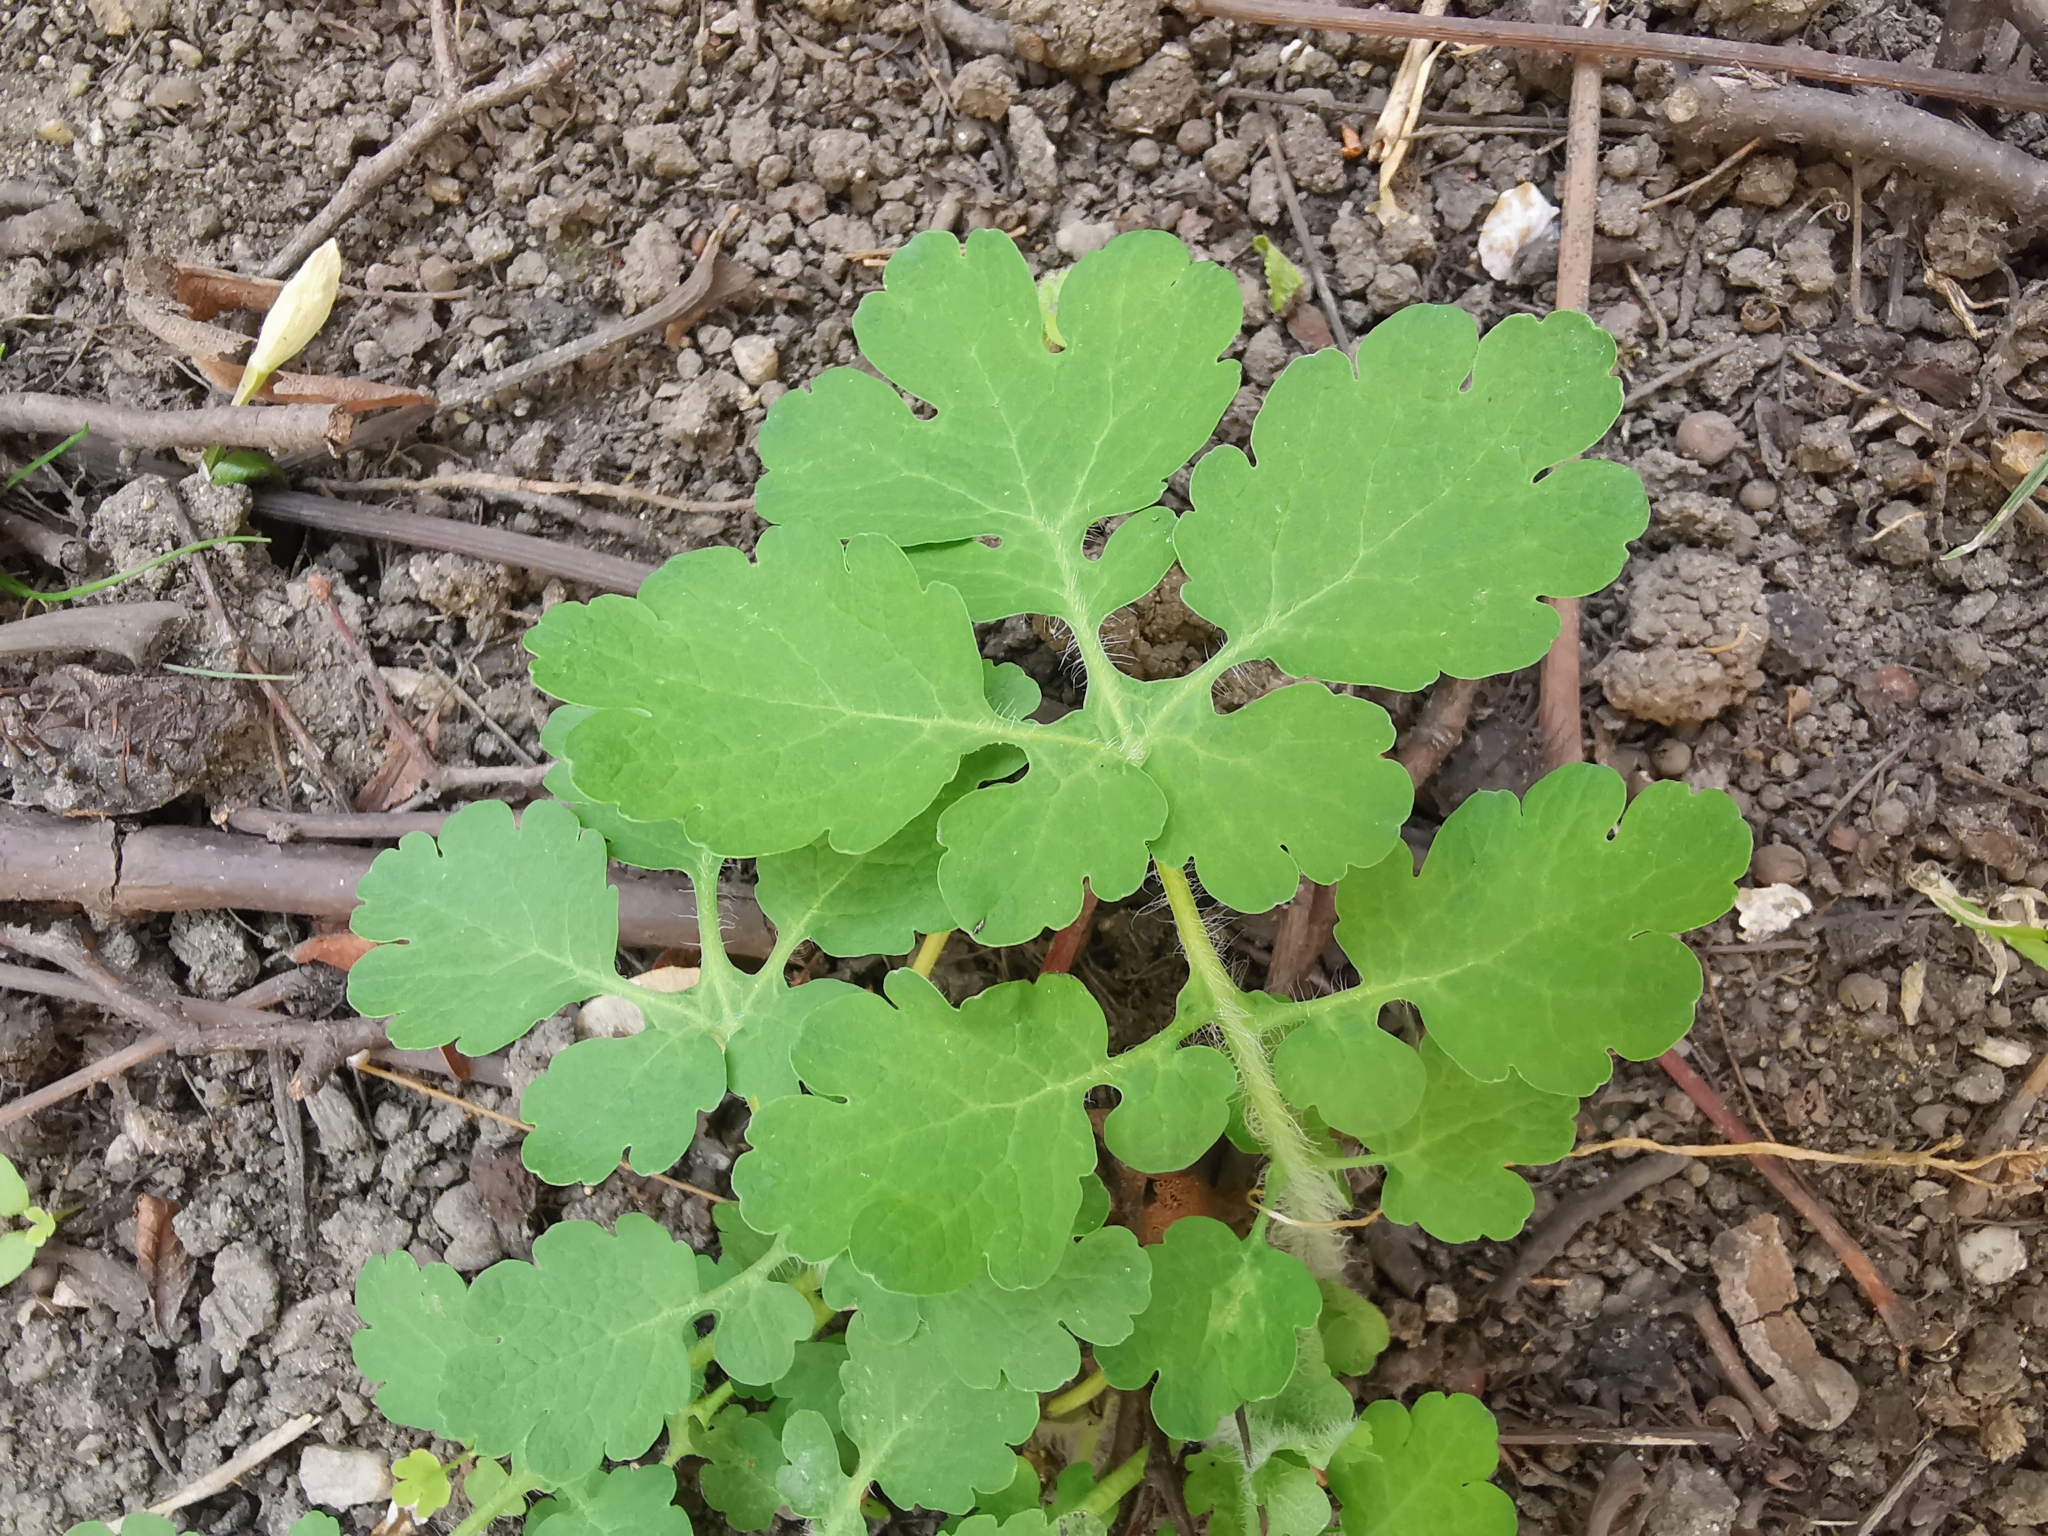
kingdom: Plantae
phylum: Tracheophyta
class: Magnoliopsida
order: Ranunculales
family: Papaveraceae
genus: Chelidonium
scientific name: Chelidonium majus
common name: Greater celandine
